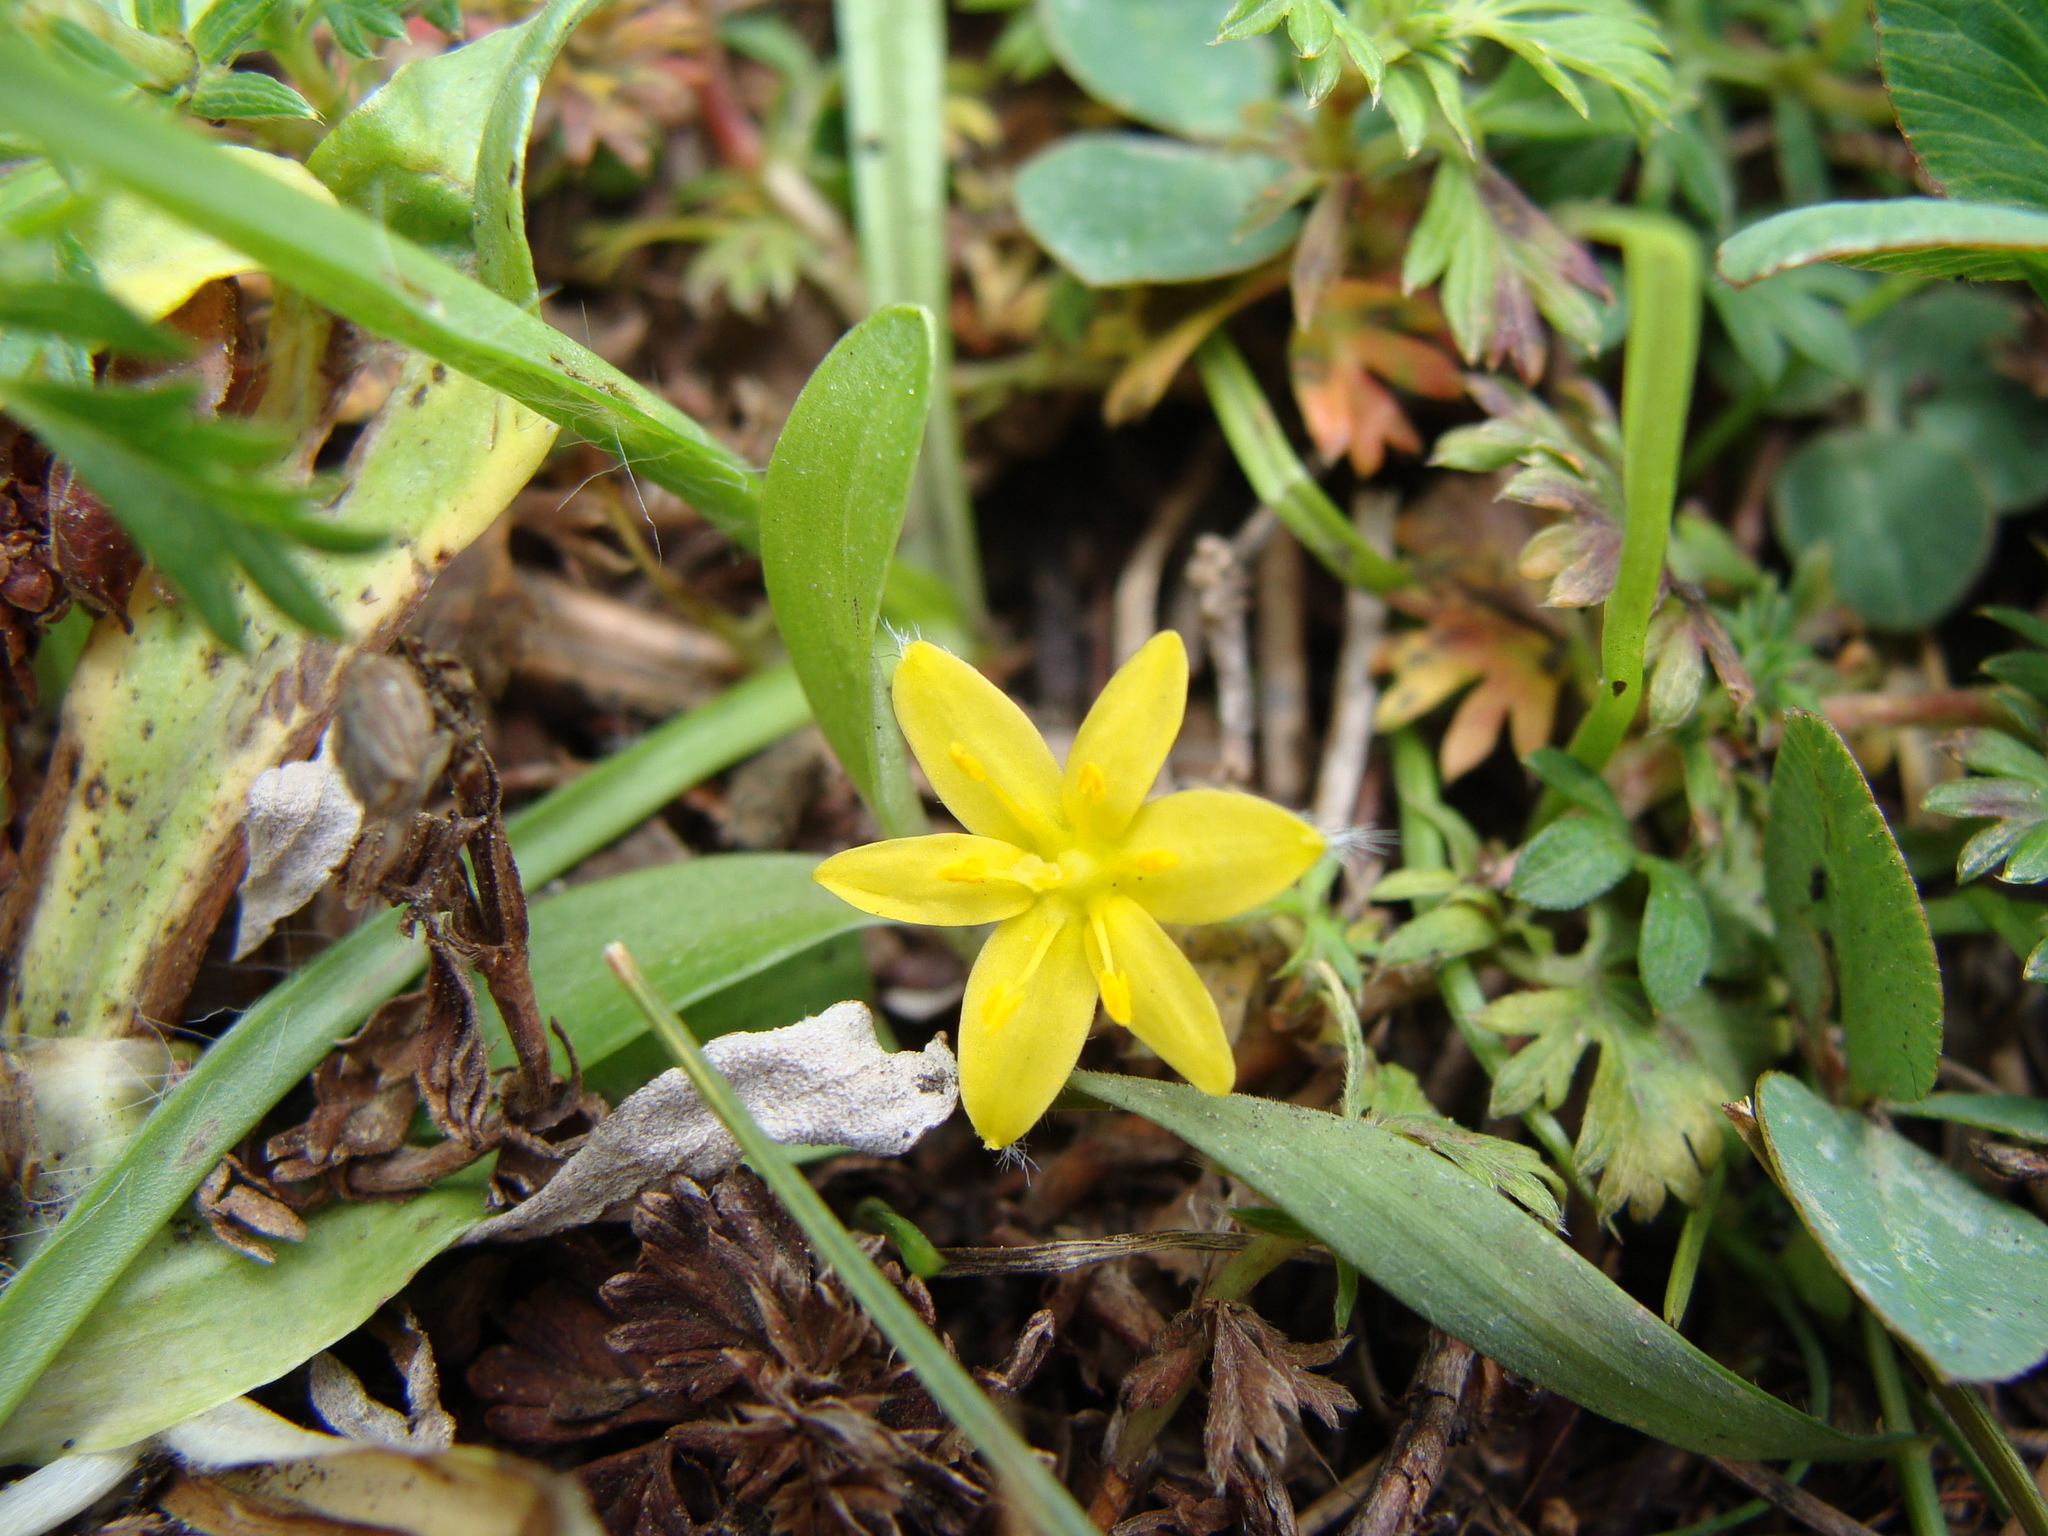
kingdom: Plantae
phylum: Tracheophyta
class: Liliopsida
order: Asparagales
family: Hypoxidaceae
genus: Hypoxis
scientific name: Hypoxis decumbens
